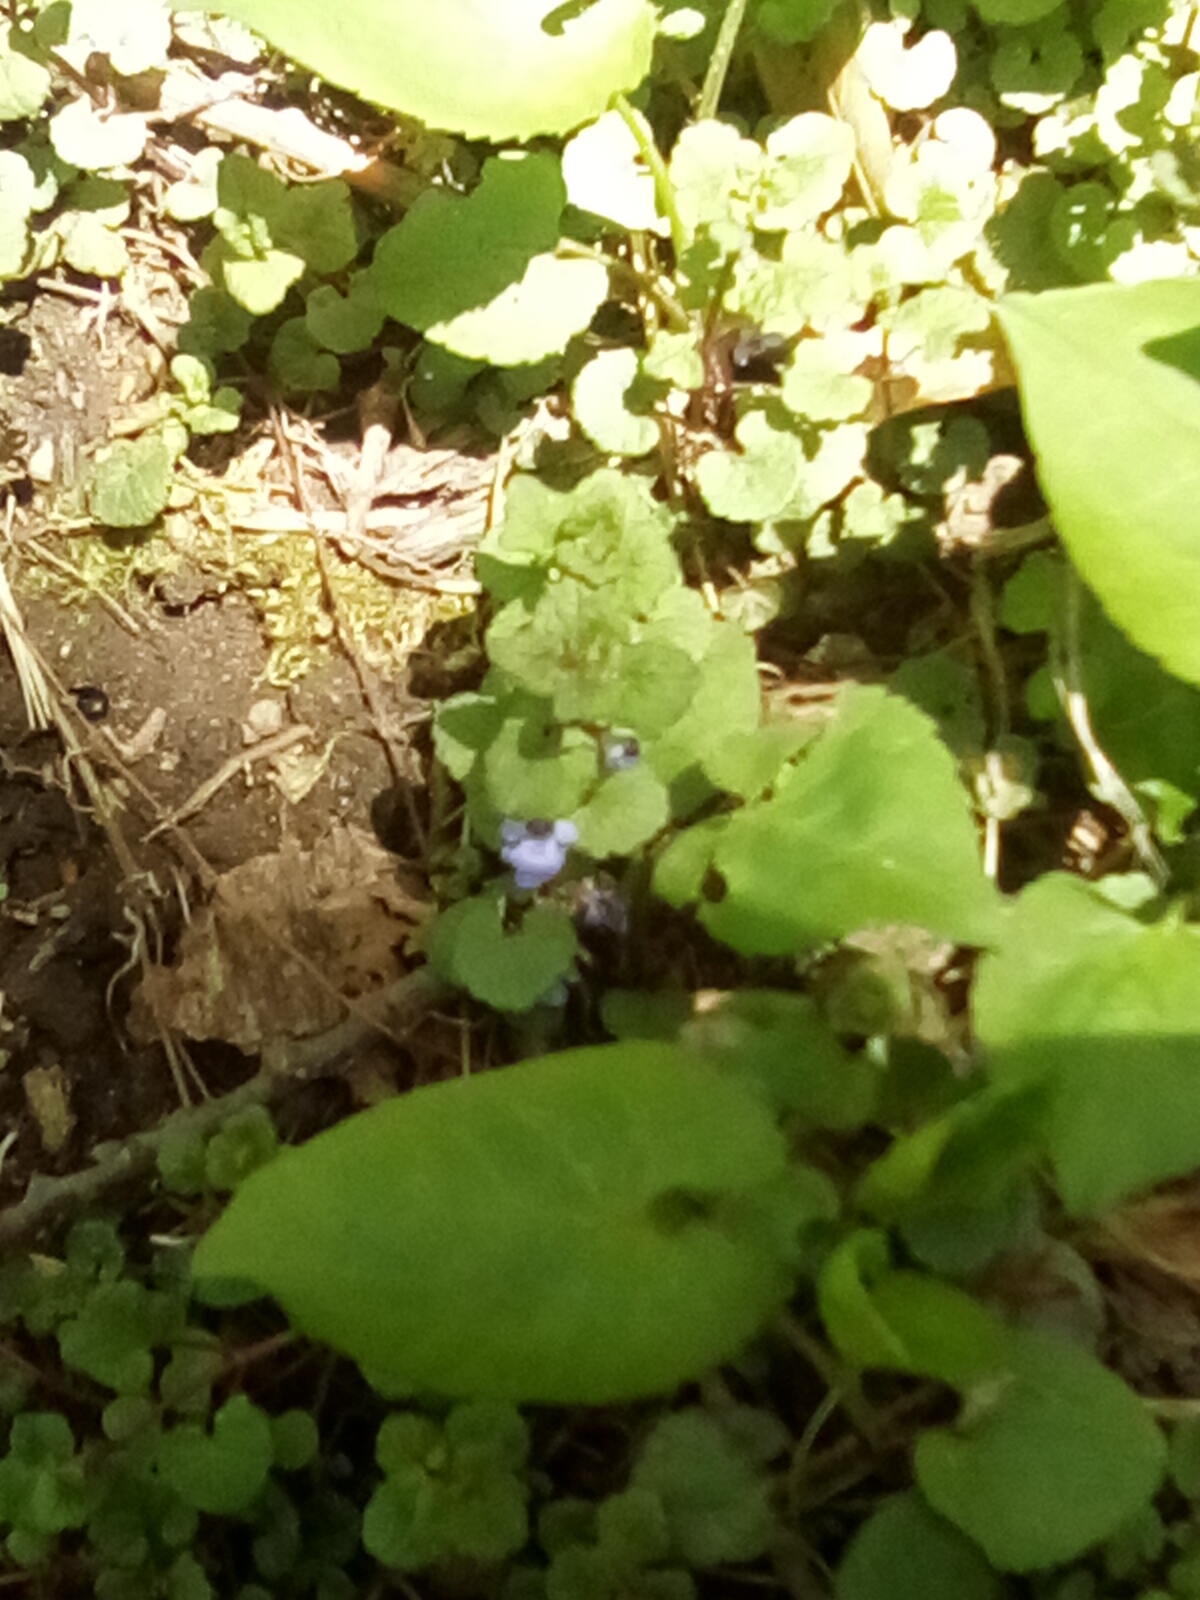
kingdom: Plantae
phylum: Tracheophyta
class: Magnoliopsida
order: Lamiales
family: Lamiaceae
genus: Glechoma
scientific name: Glechoma hederacea
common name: Ground ivy
